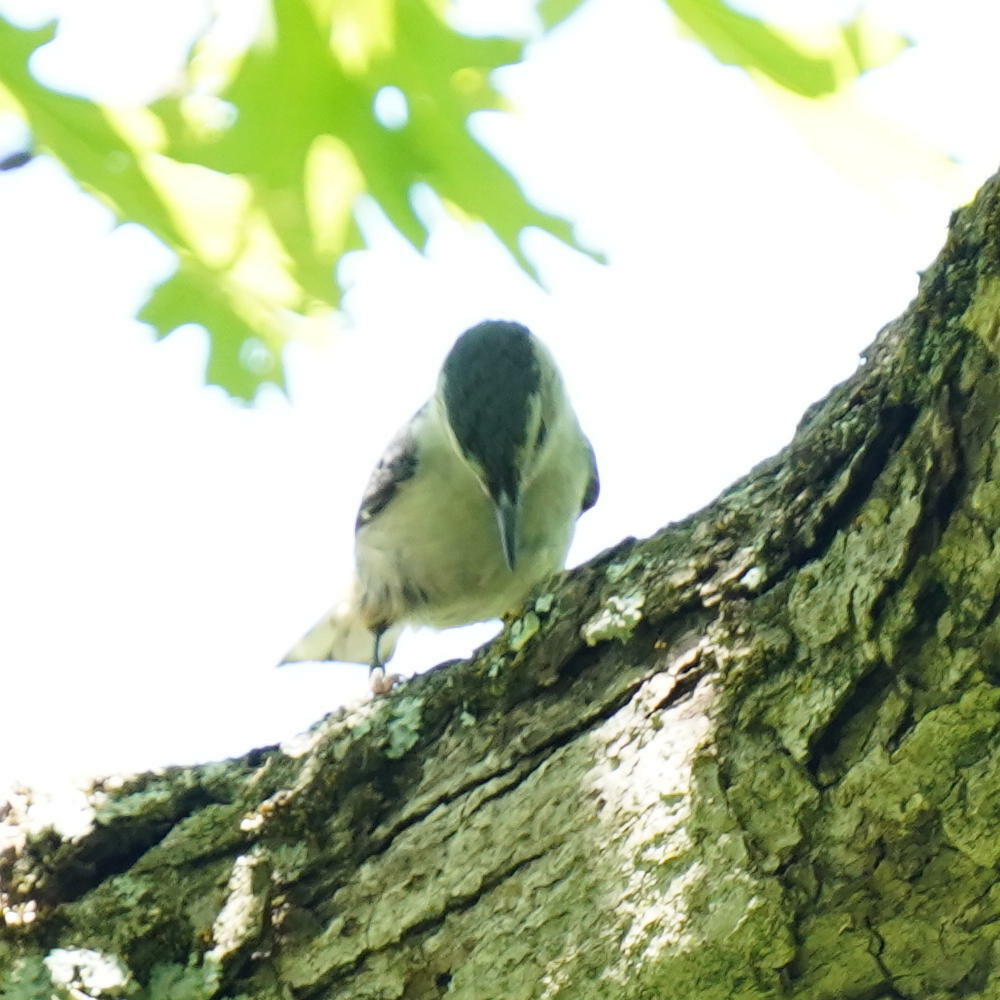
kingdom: Animalia
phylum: Chordata
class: Aves
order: Passeriformes
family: Sittidae
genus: Sitta
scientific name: Sitta carolinensis
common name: White-breasted nuthatch
